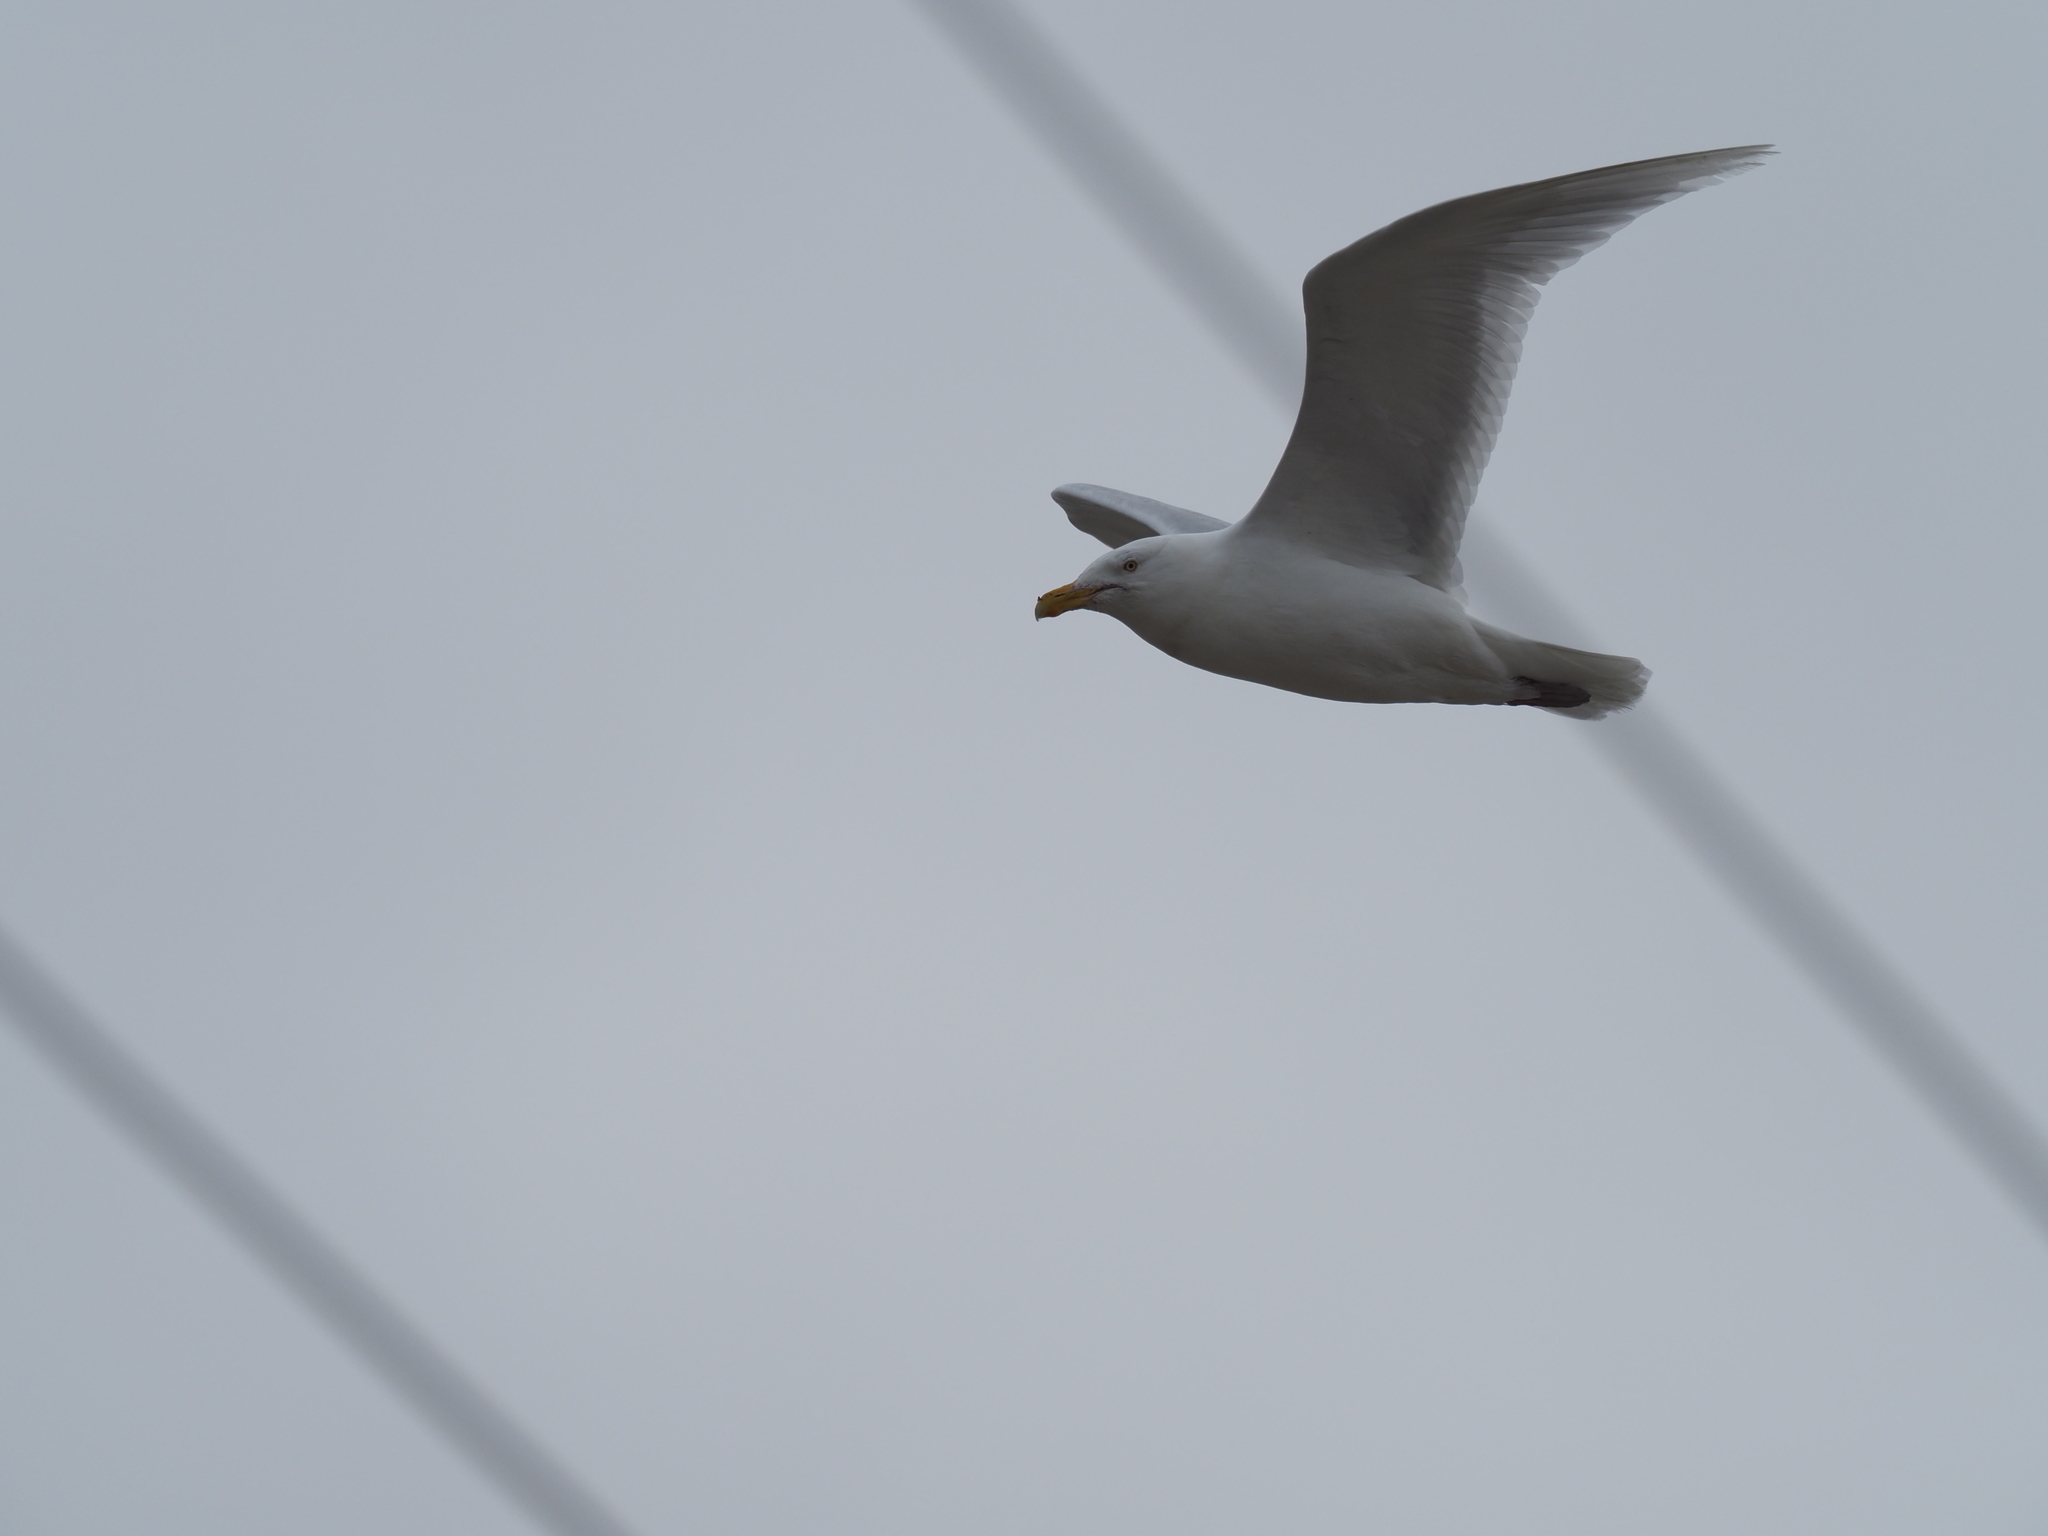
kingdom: Animalia
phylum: Chordata
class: Aves
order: Charadriiformes
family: Laridae
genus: Larus
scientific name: Larus hyperboreus
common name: Glaucous gull
